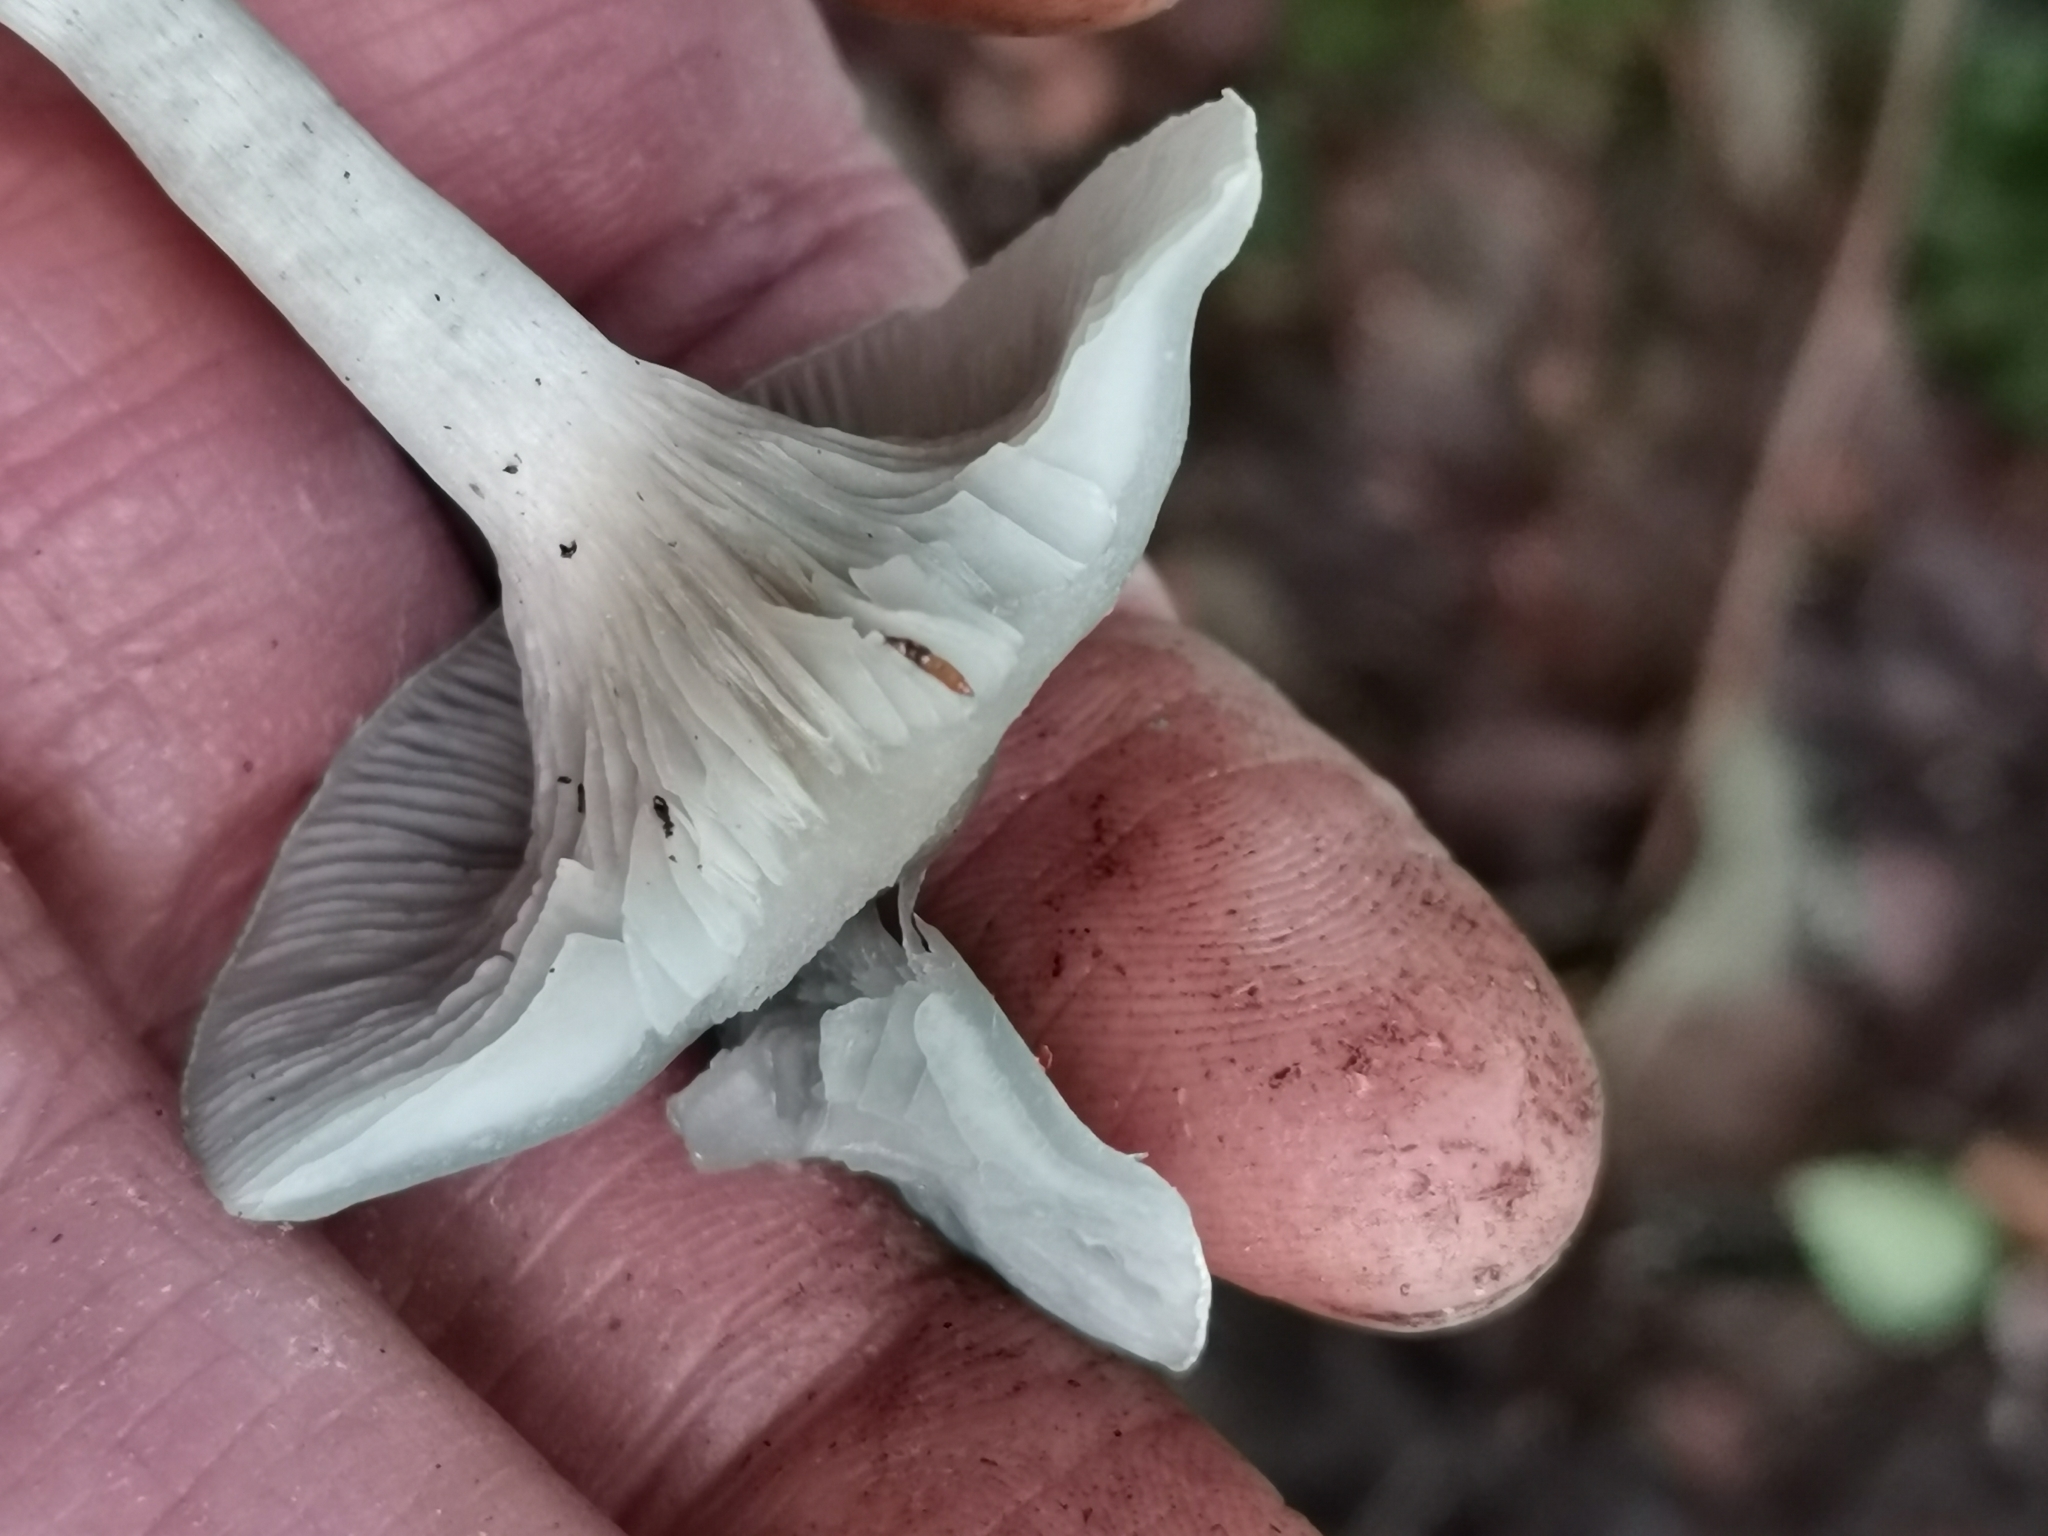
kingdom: Fungi
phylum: Basidiomycota
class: Agaricomycetes
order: Agaricales
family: Tricholomataceae
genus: Collybia
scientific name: Collybia
